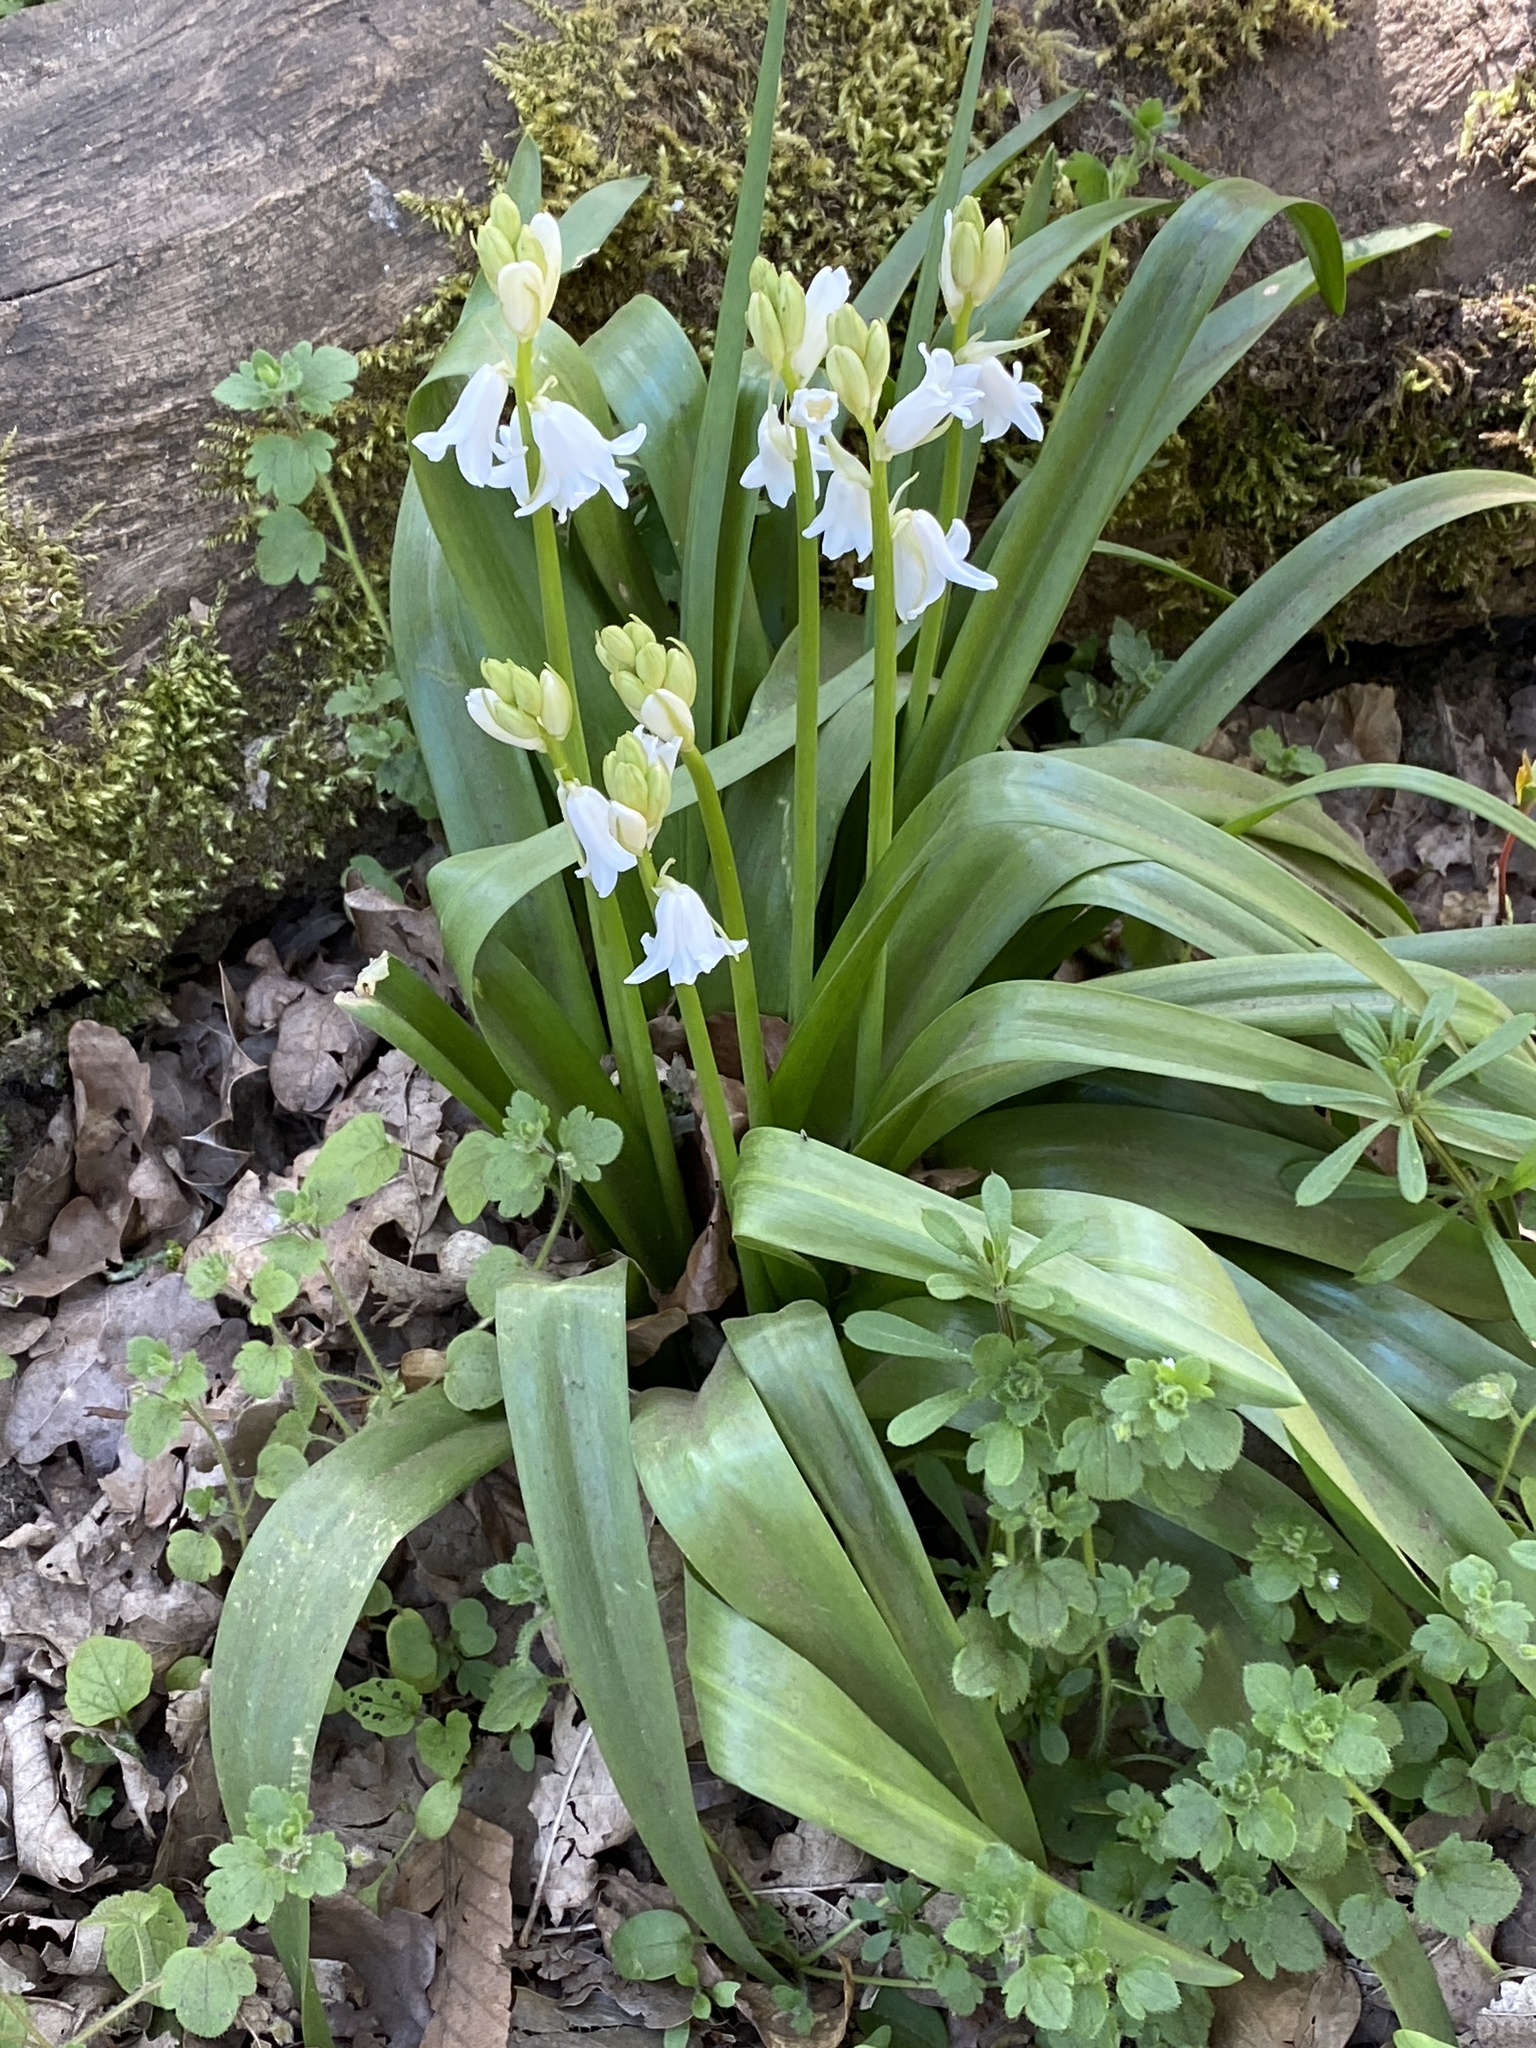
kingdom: Plantae
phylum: Tracheophyta
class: Liliopsida
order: Asparagales
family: Asparagaceae
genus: Hyacinthoides
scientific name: Hyacinthoides massartiana
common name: Hyacinthoides
